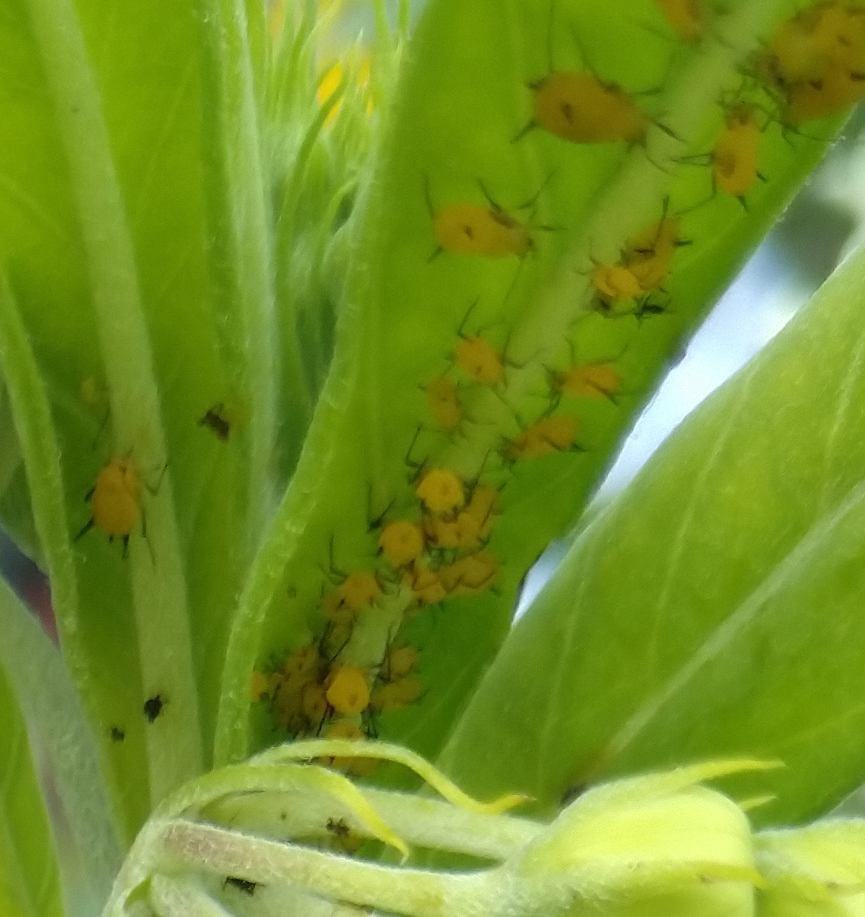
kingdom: Animalia
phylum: Arthropoda
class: Insecta
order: Hemiptera
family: Aphididae
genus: Aphis
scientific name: Aphis nerii
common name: Oleander aphid
